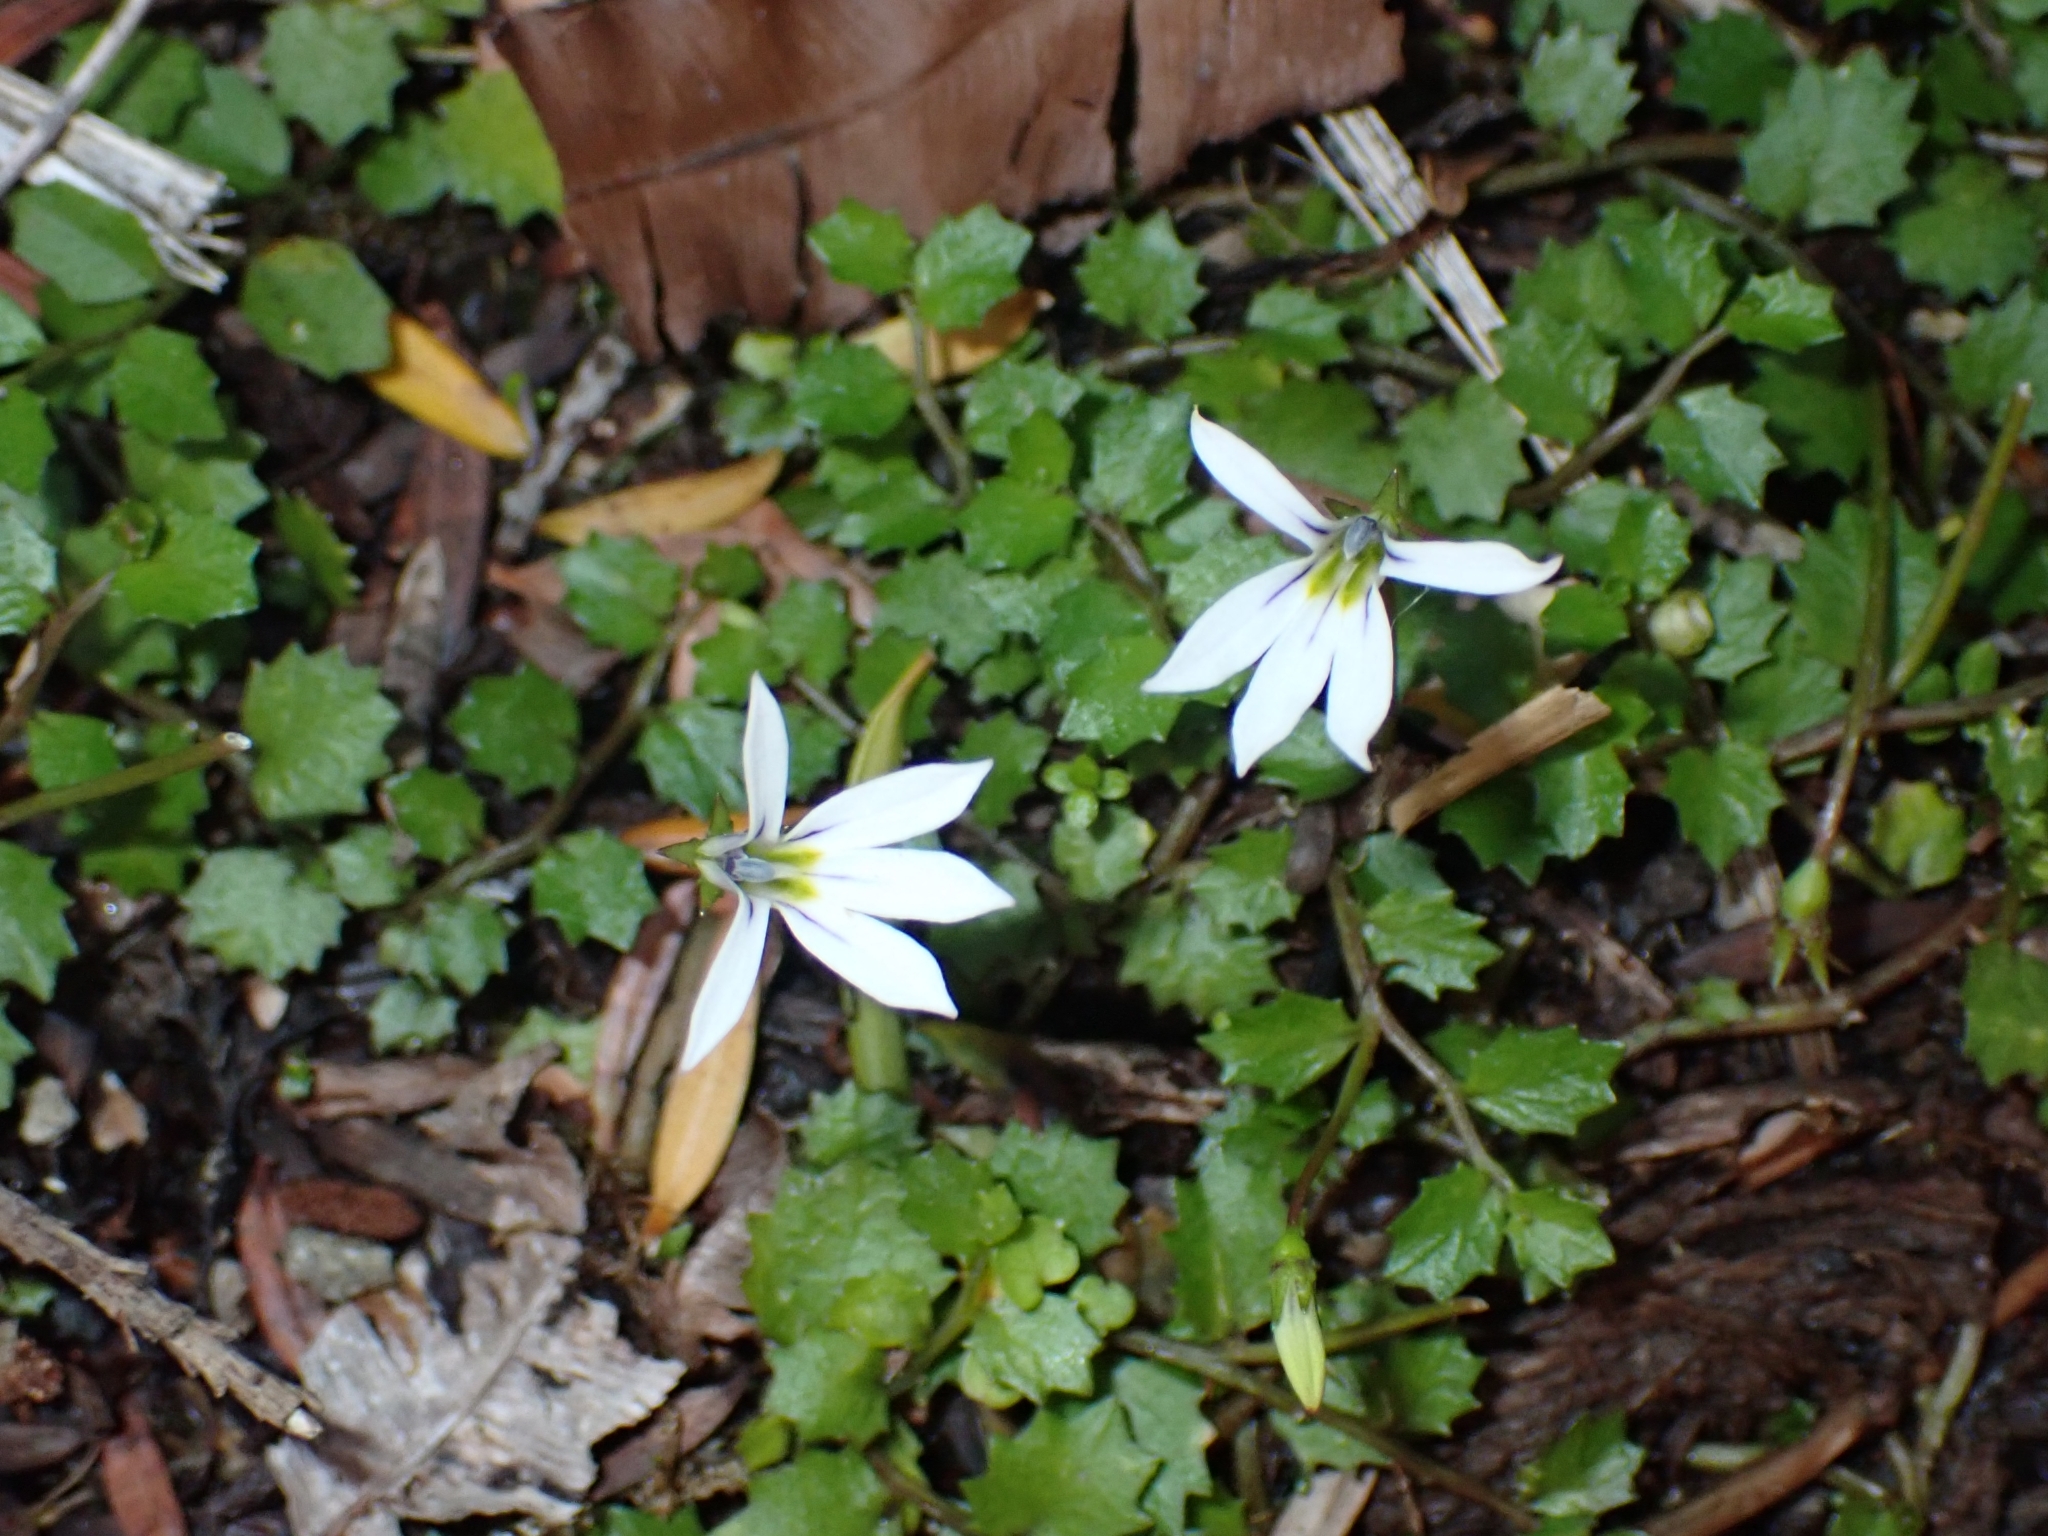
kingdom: Plantae
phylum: Tracheophyta
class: Magnoliopsida
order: Asterales
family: Campanulaceae
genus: Lobelia
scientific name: Lobelia angulata
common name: Lawn lobelia
